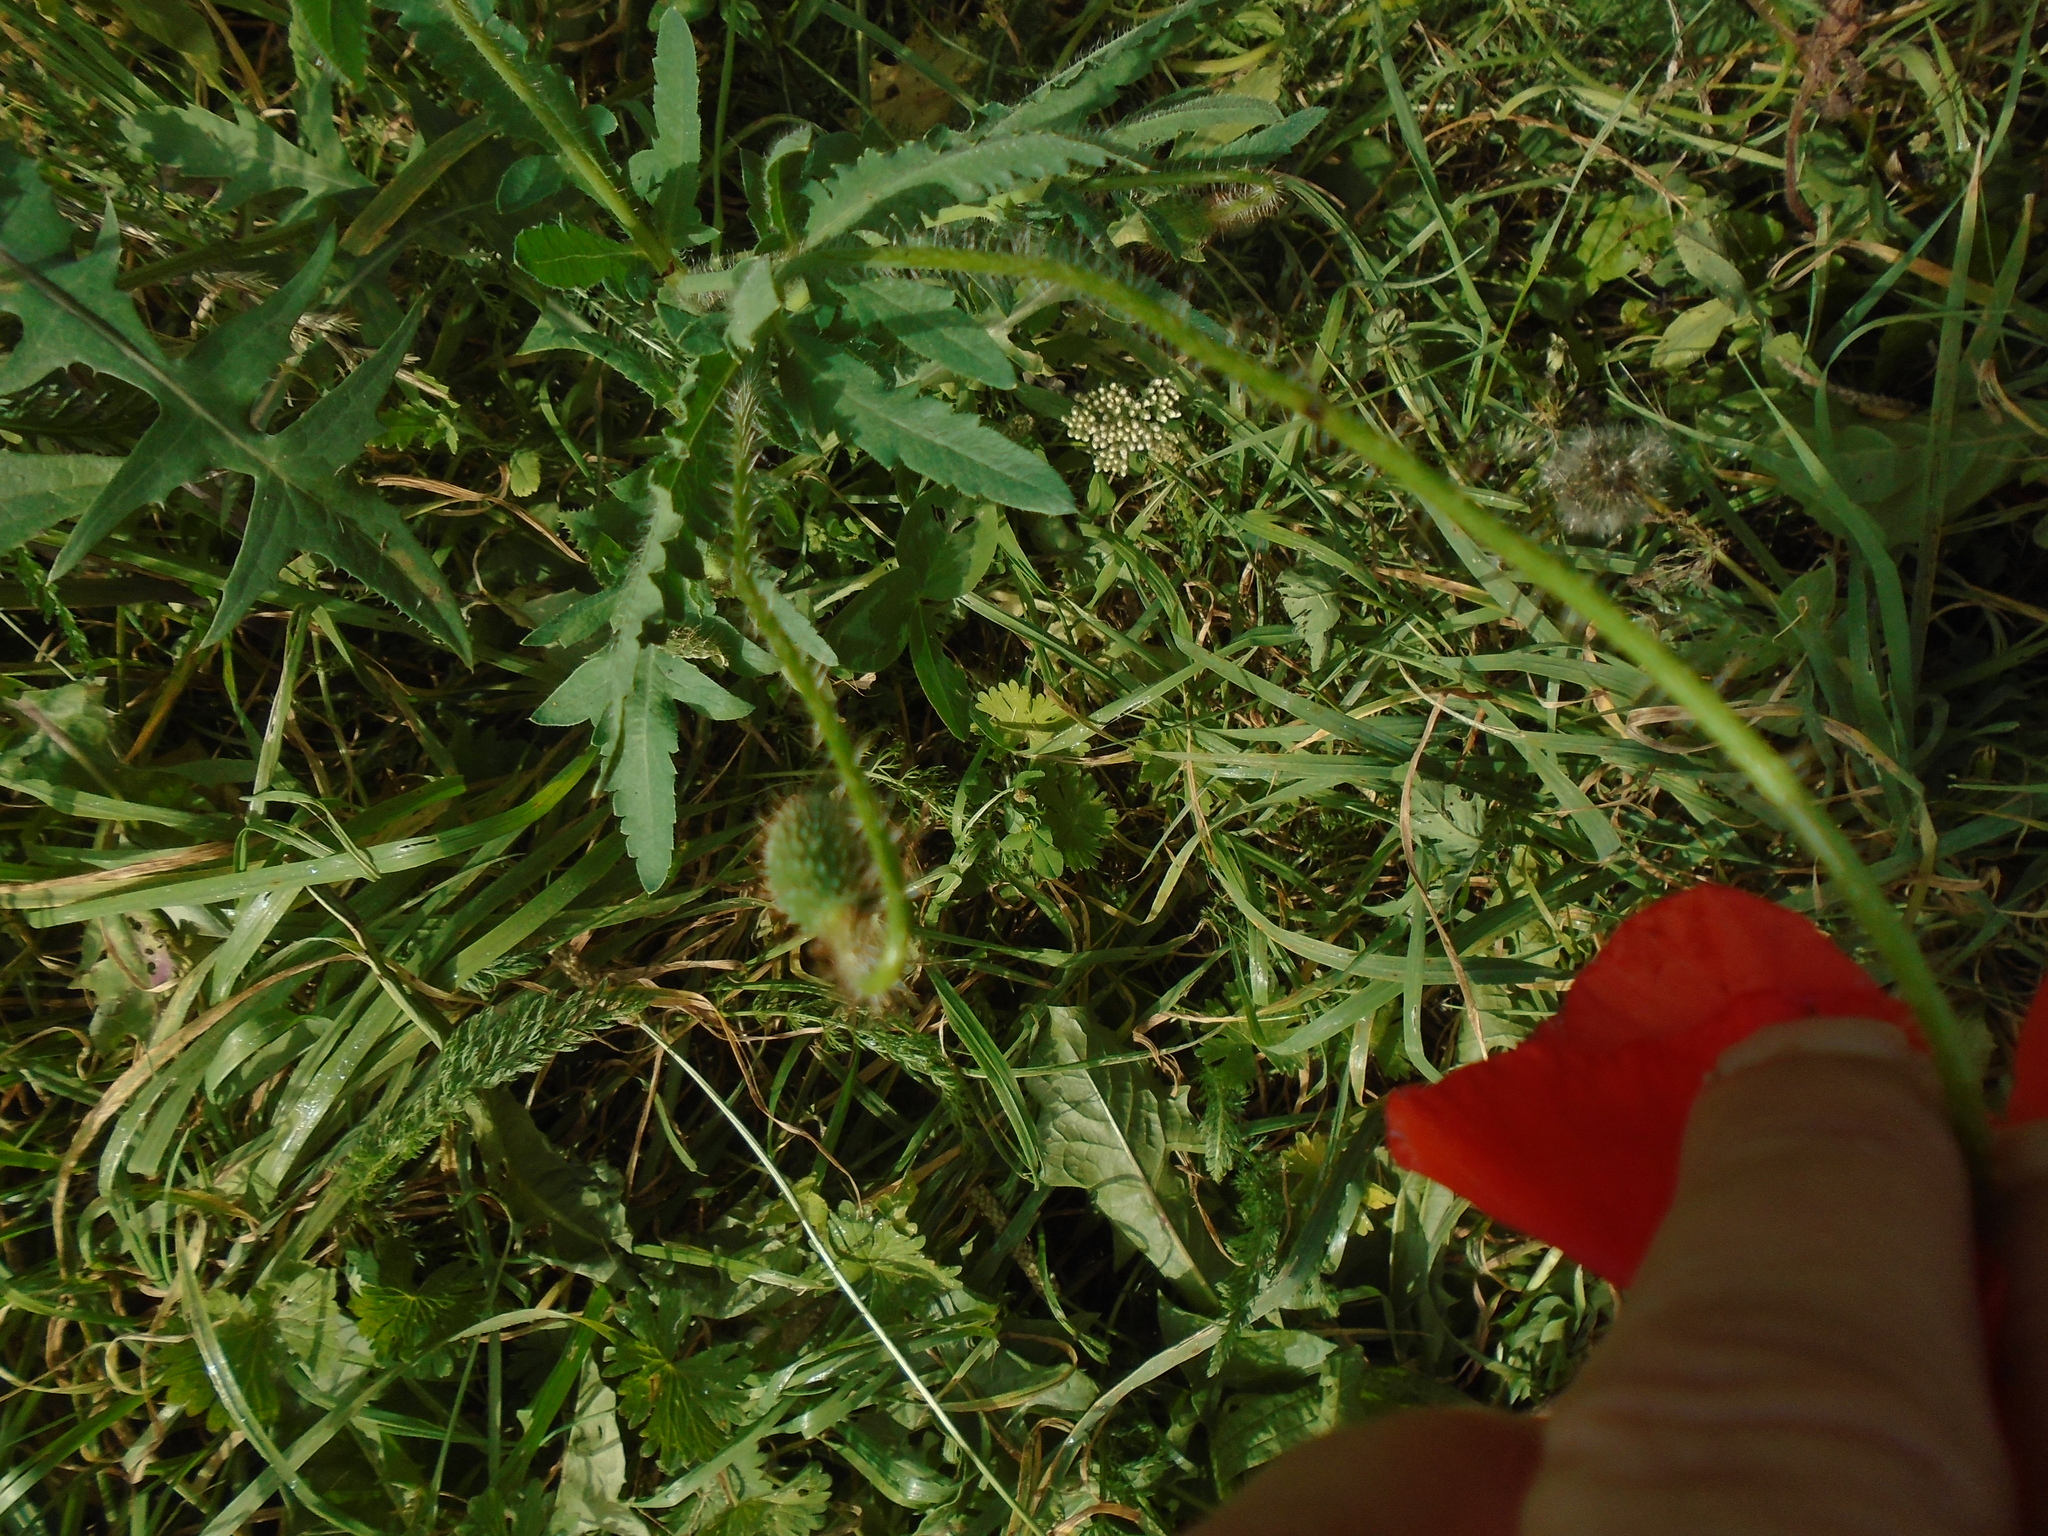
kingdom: Plantae
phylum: Tracheophyta
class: Magnoliopsida
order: Ranunculales
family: Papaveraceae
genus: Papaver
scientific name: Papaver rhoeas
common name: Corn poppy
